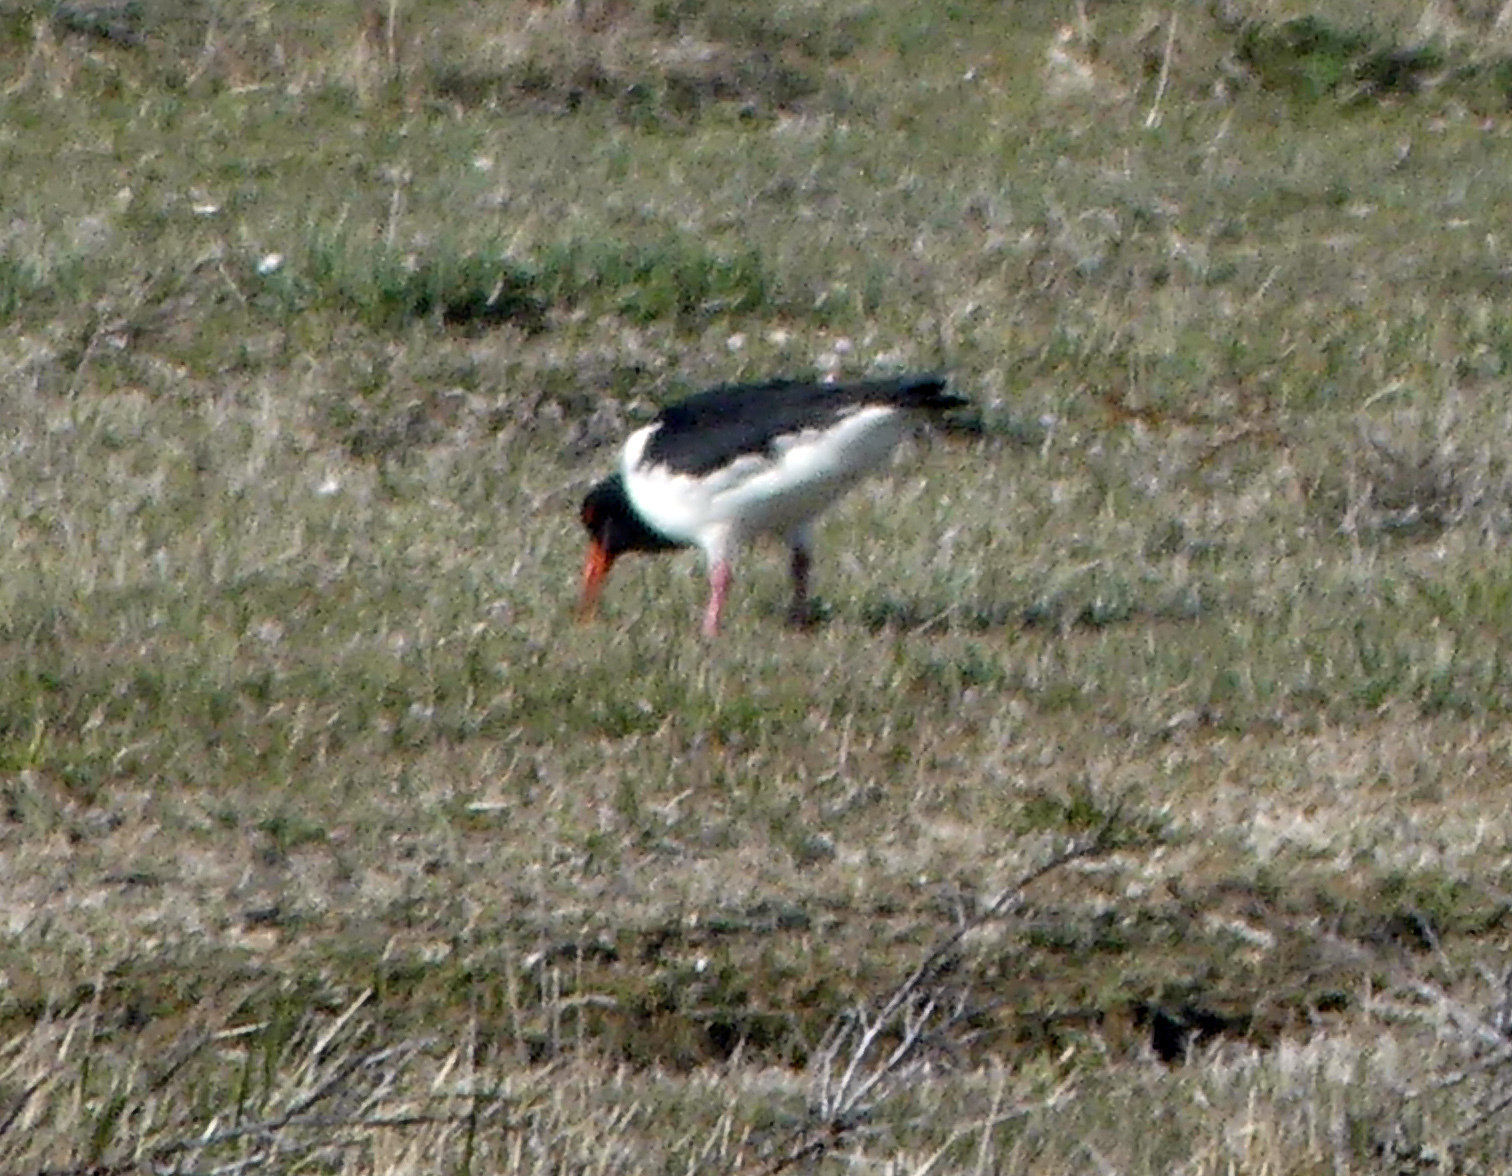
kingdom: Animalia
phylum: Chordata
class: Aves
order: Charadriiformes
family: Haematopodidae
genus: Haematopus
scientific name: Haematopus ostralegus
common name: Eurasian oystercatcher
